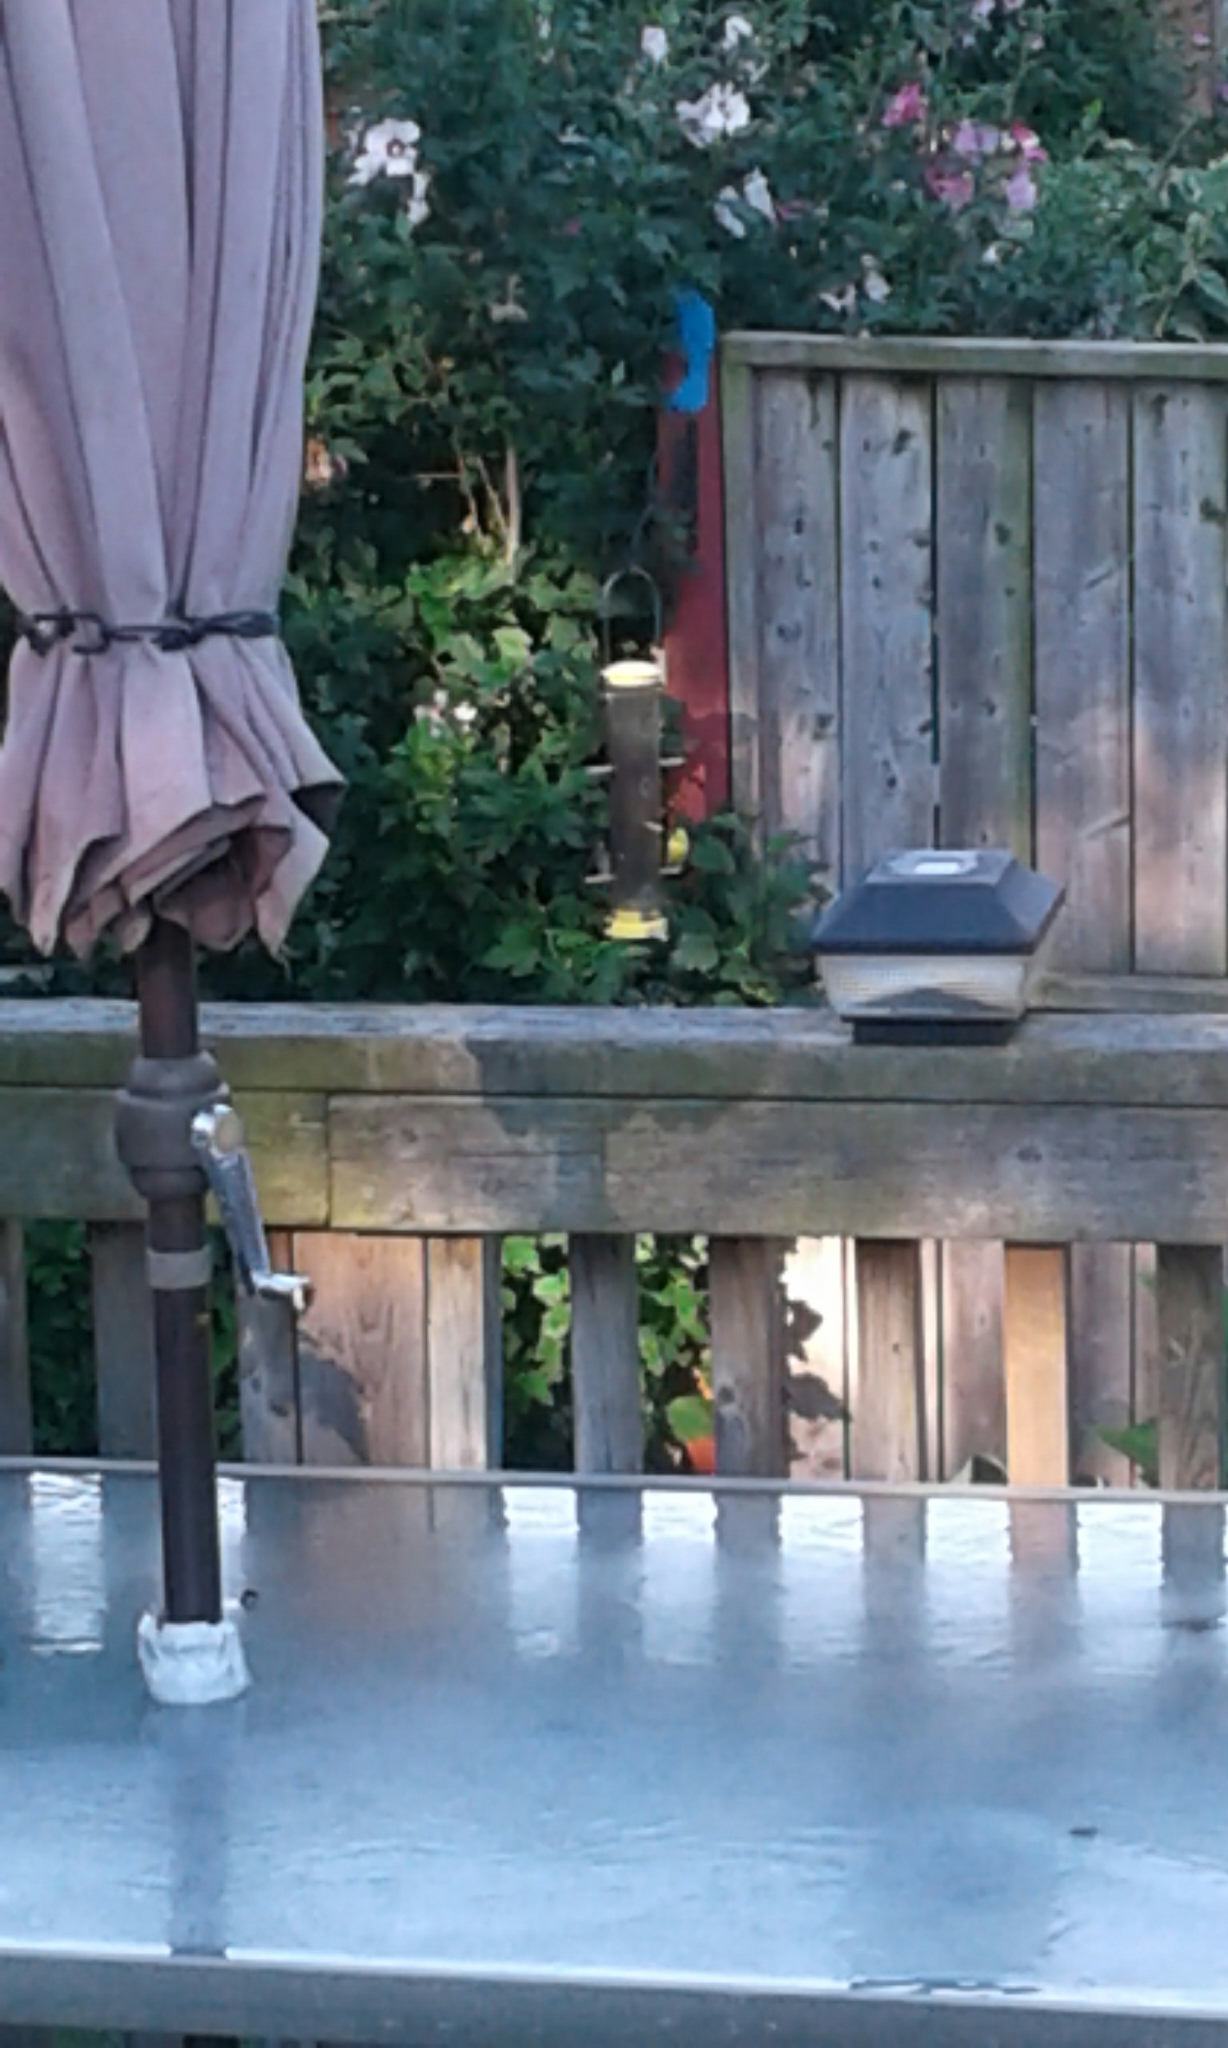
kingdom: Animalia
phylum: Chordata
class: Aves
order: Passeriformes
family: Fringillidae
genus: Spinus
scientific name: Spinus tristis
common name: American goldfinch
